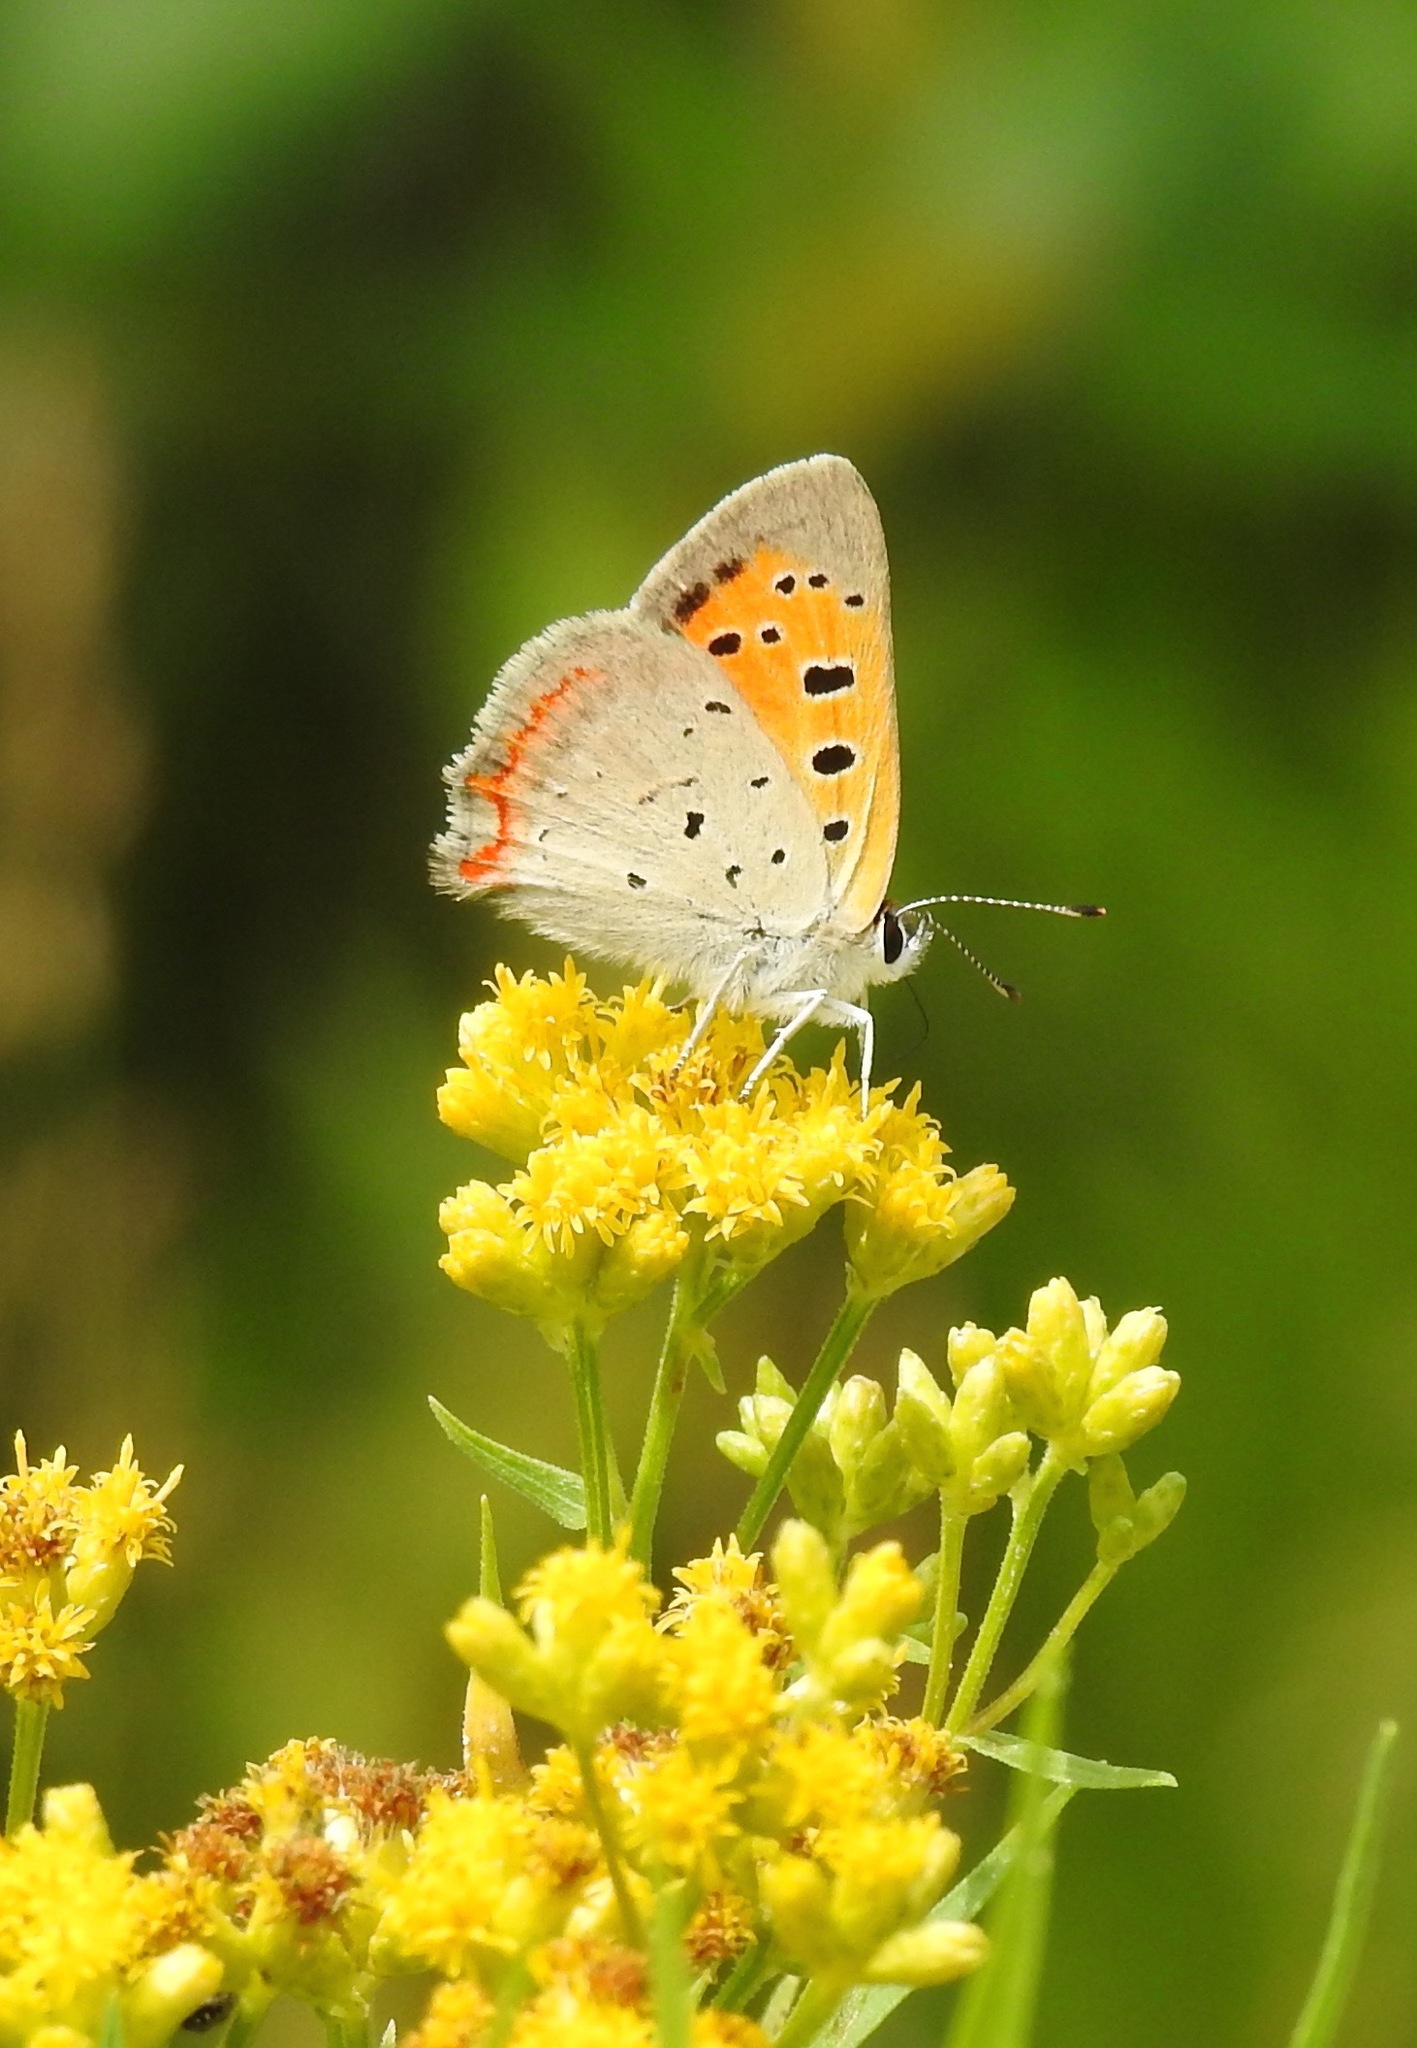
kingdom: Animalia
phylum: Arthropoda
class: Insecta
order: Lepidoptera
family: Lycaenidae
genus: Lycaena
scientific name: Lycaena hypophlaeas
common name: American copper
